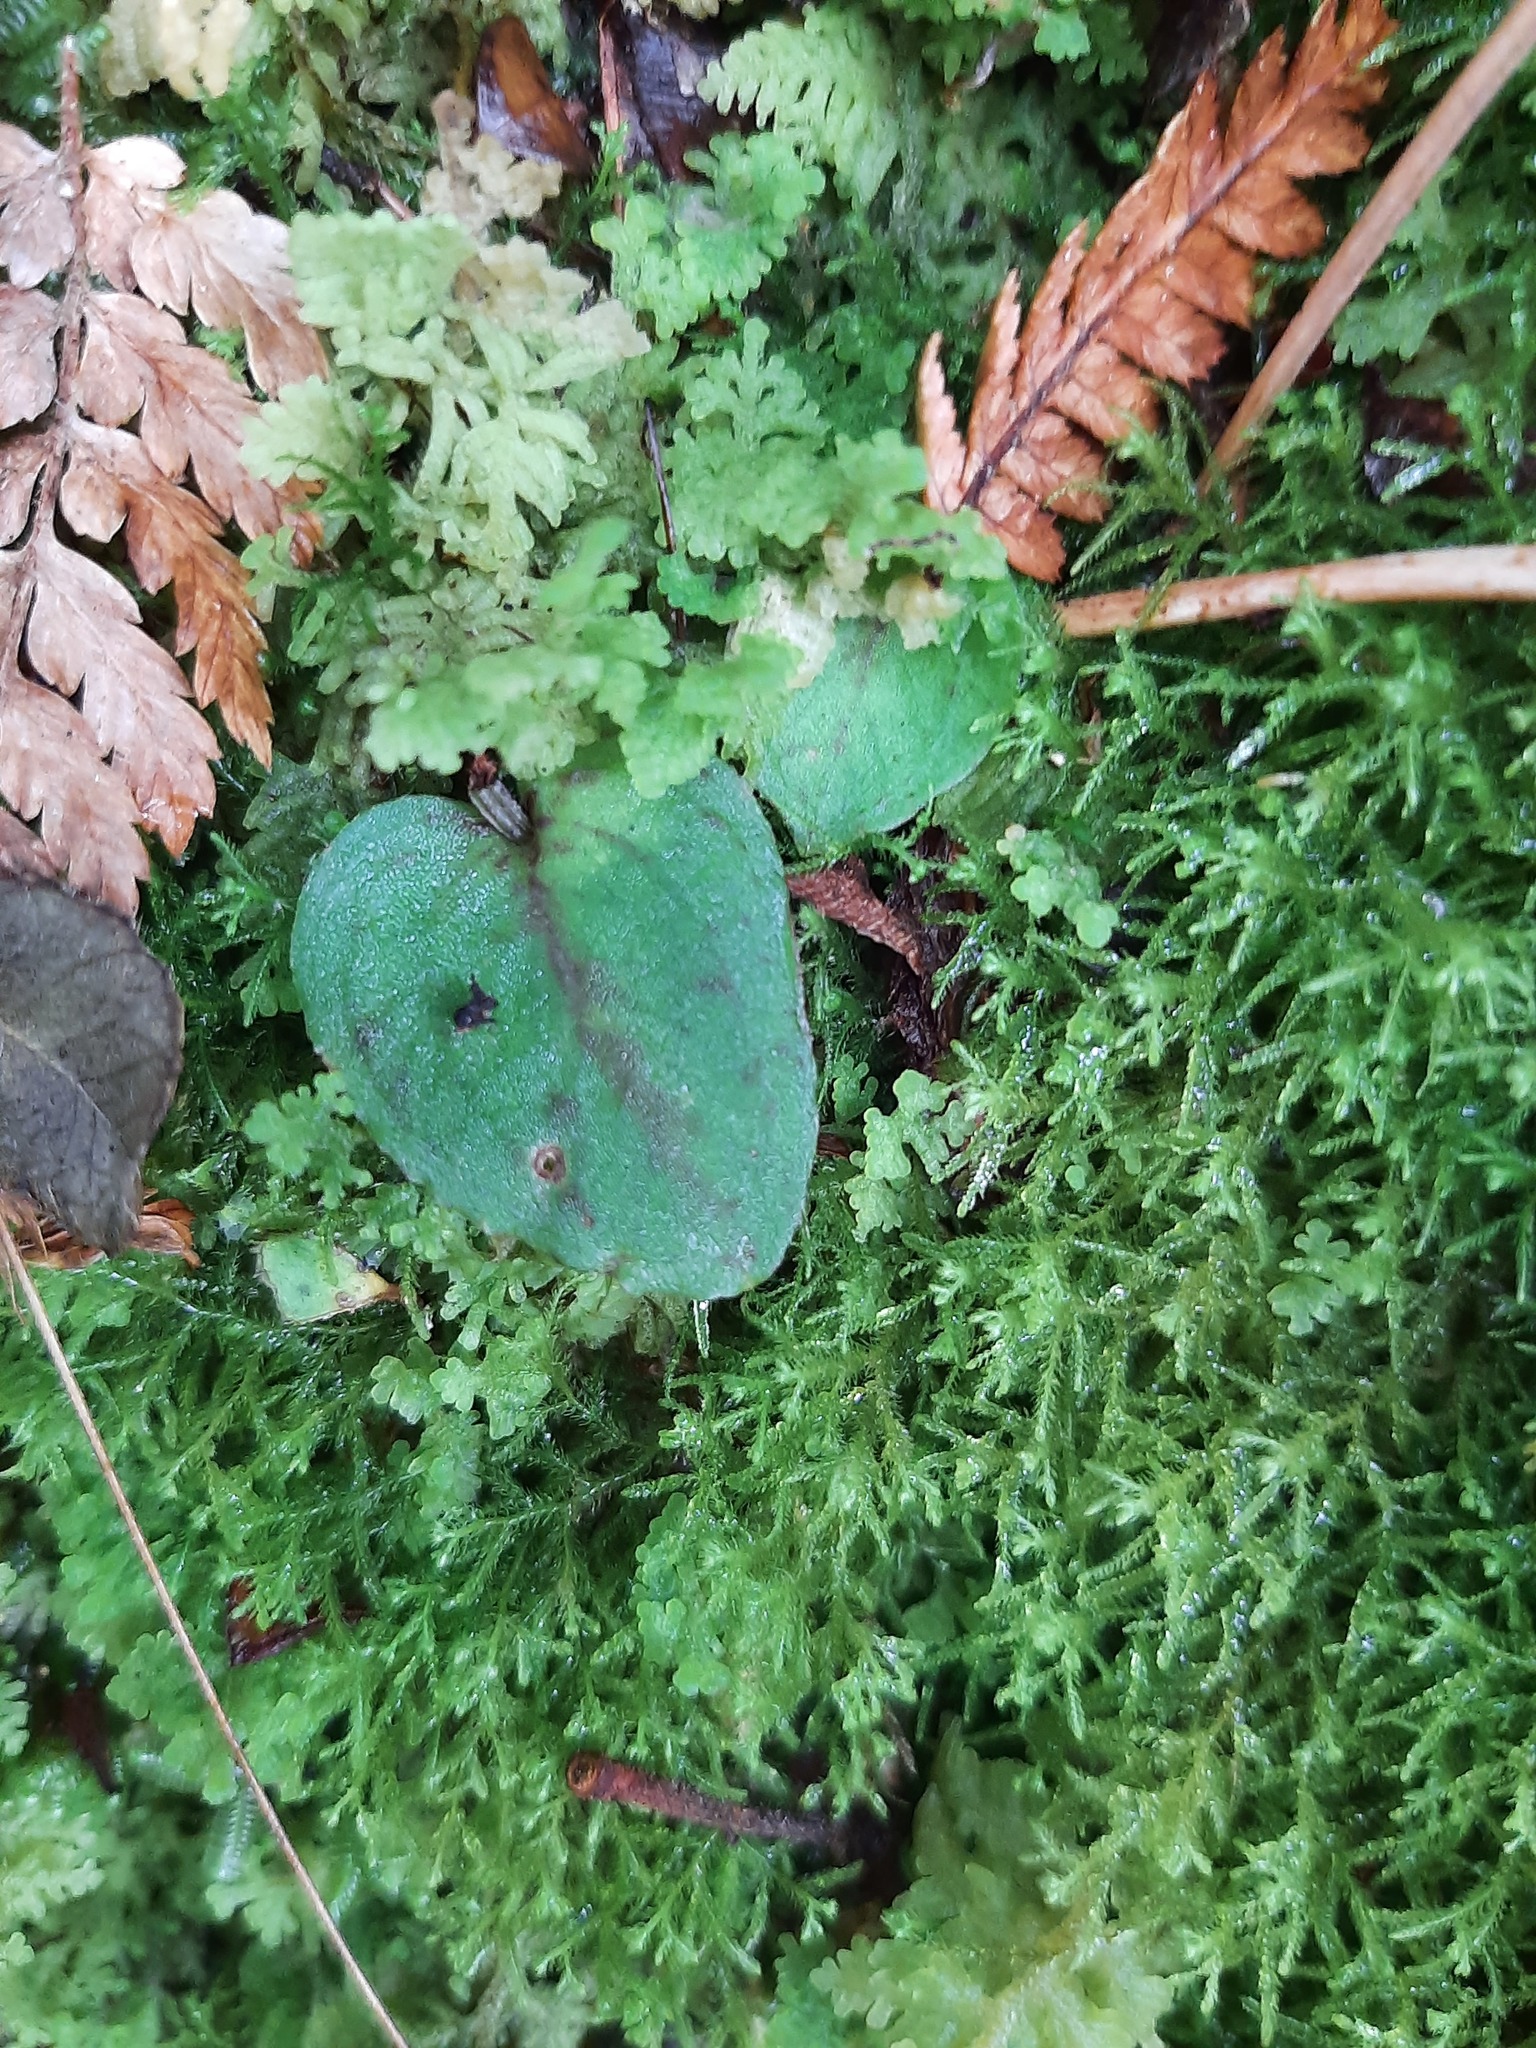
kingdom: Plantae
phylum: Tracheophyta
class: Liliopsida
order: Asparagales
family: Orchidaceae
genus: Corybas
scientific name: Corybas oblongus
